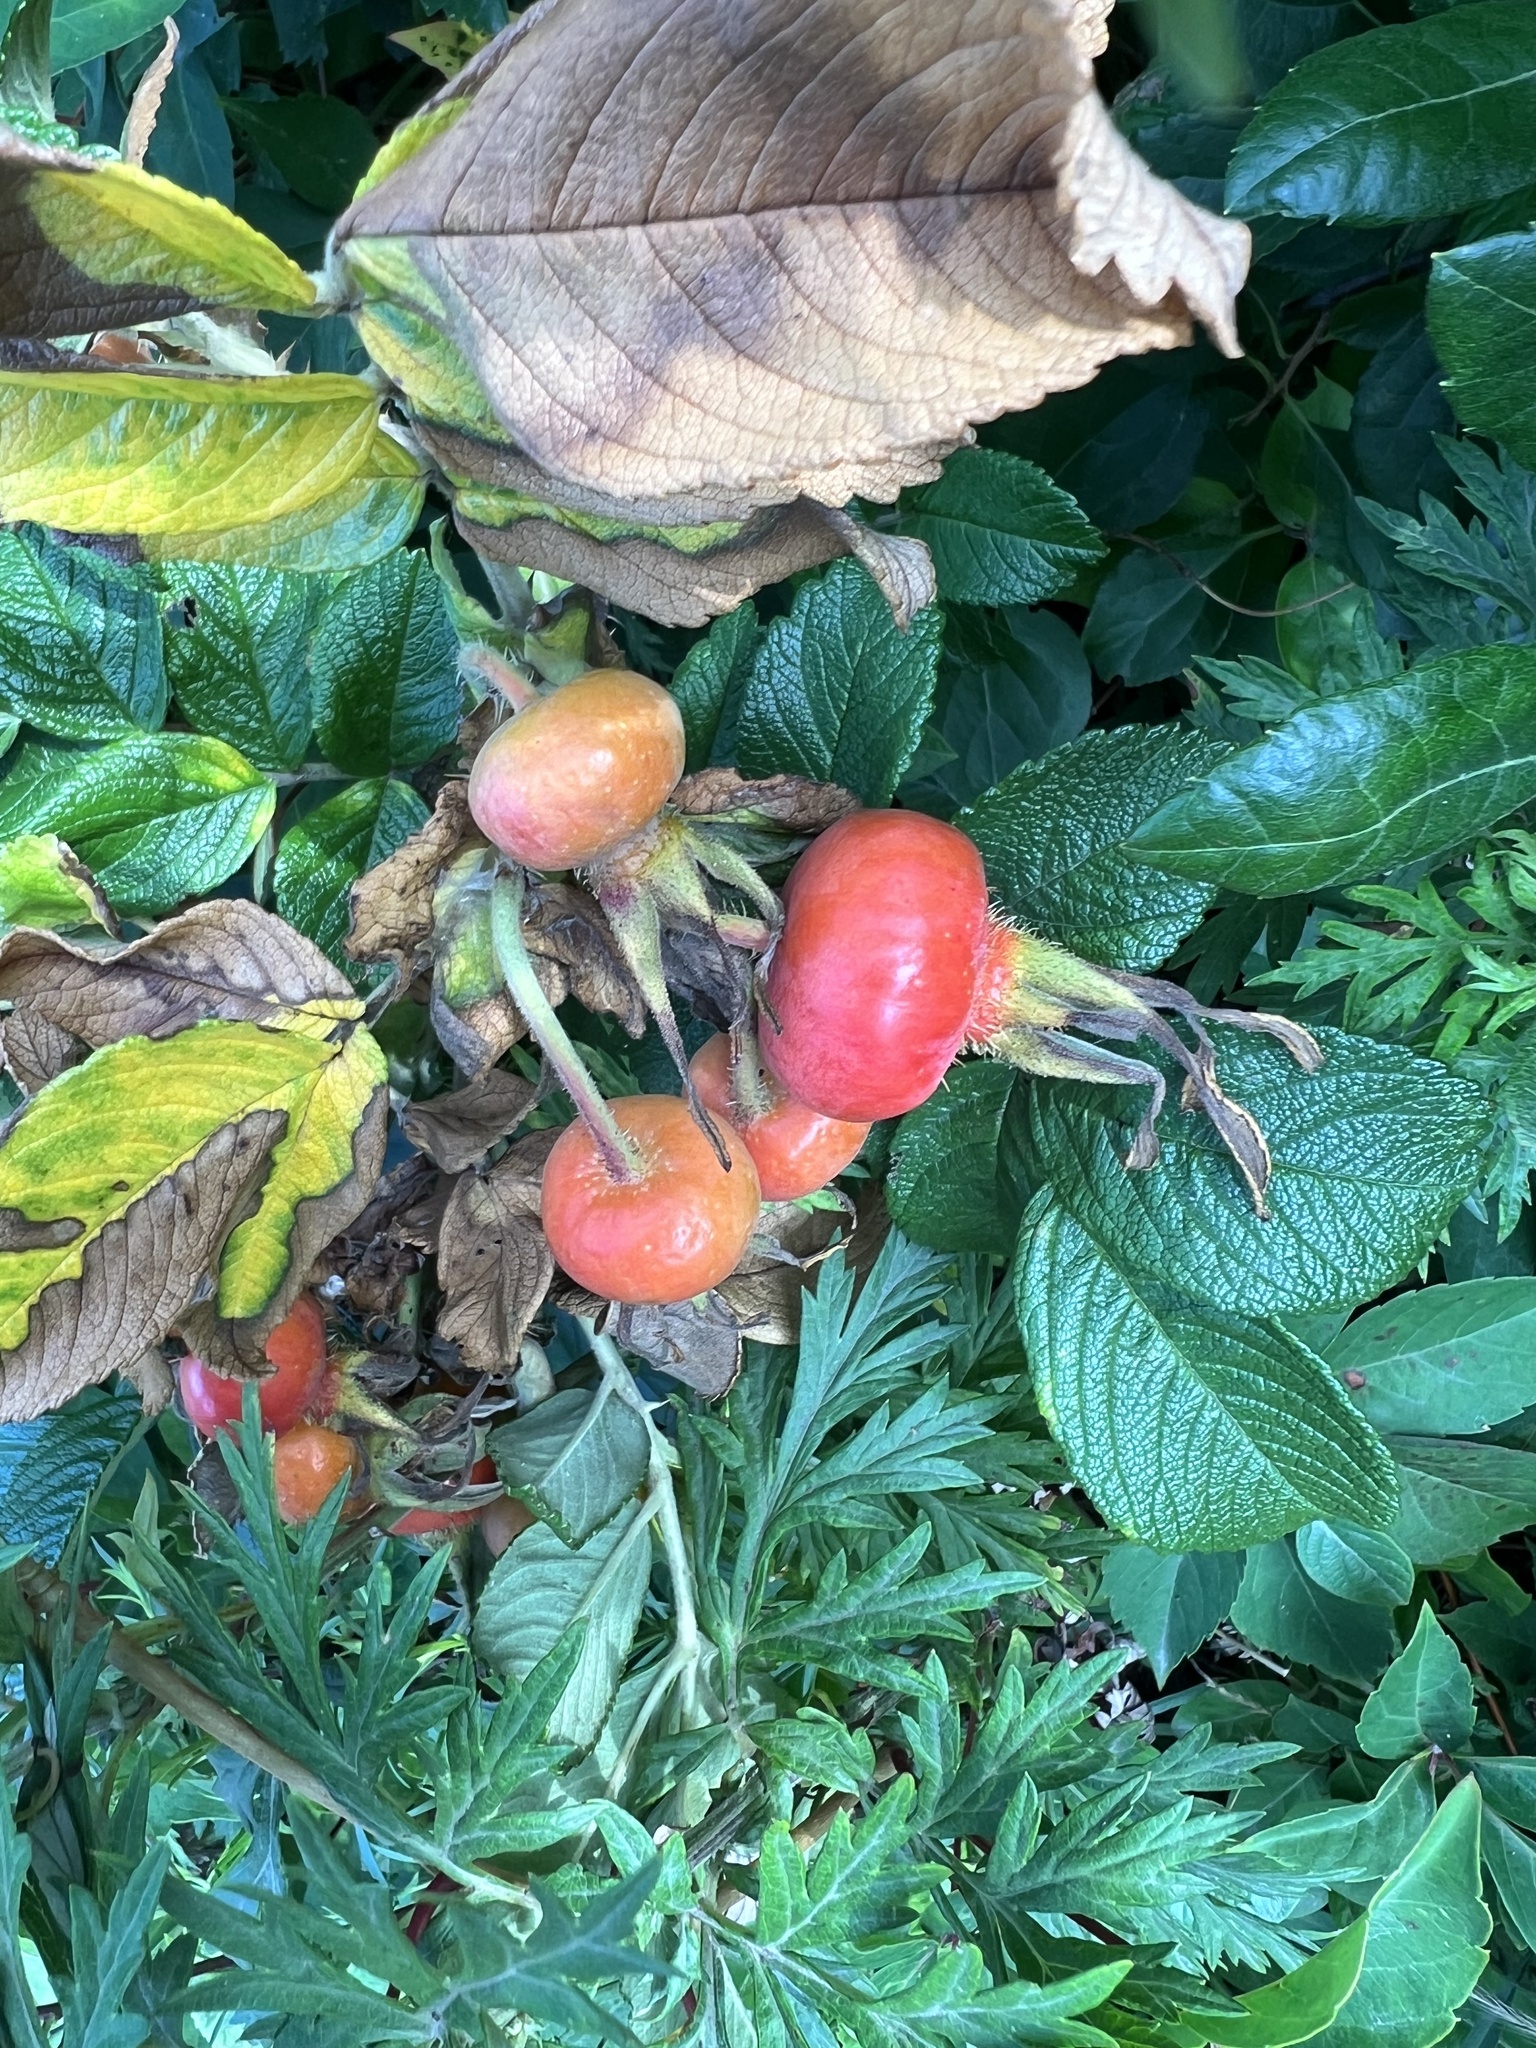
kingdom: Plantae
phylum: Tracheophyta
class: Magnoliopsida
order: Rosales
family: Rosaceae
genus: Rosa
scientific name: Rosa rugosa
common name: Japanese rose
